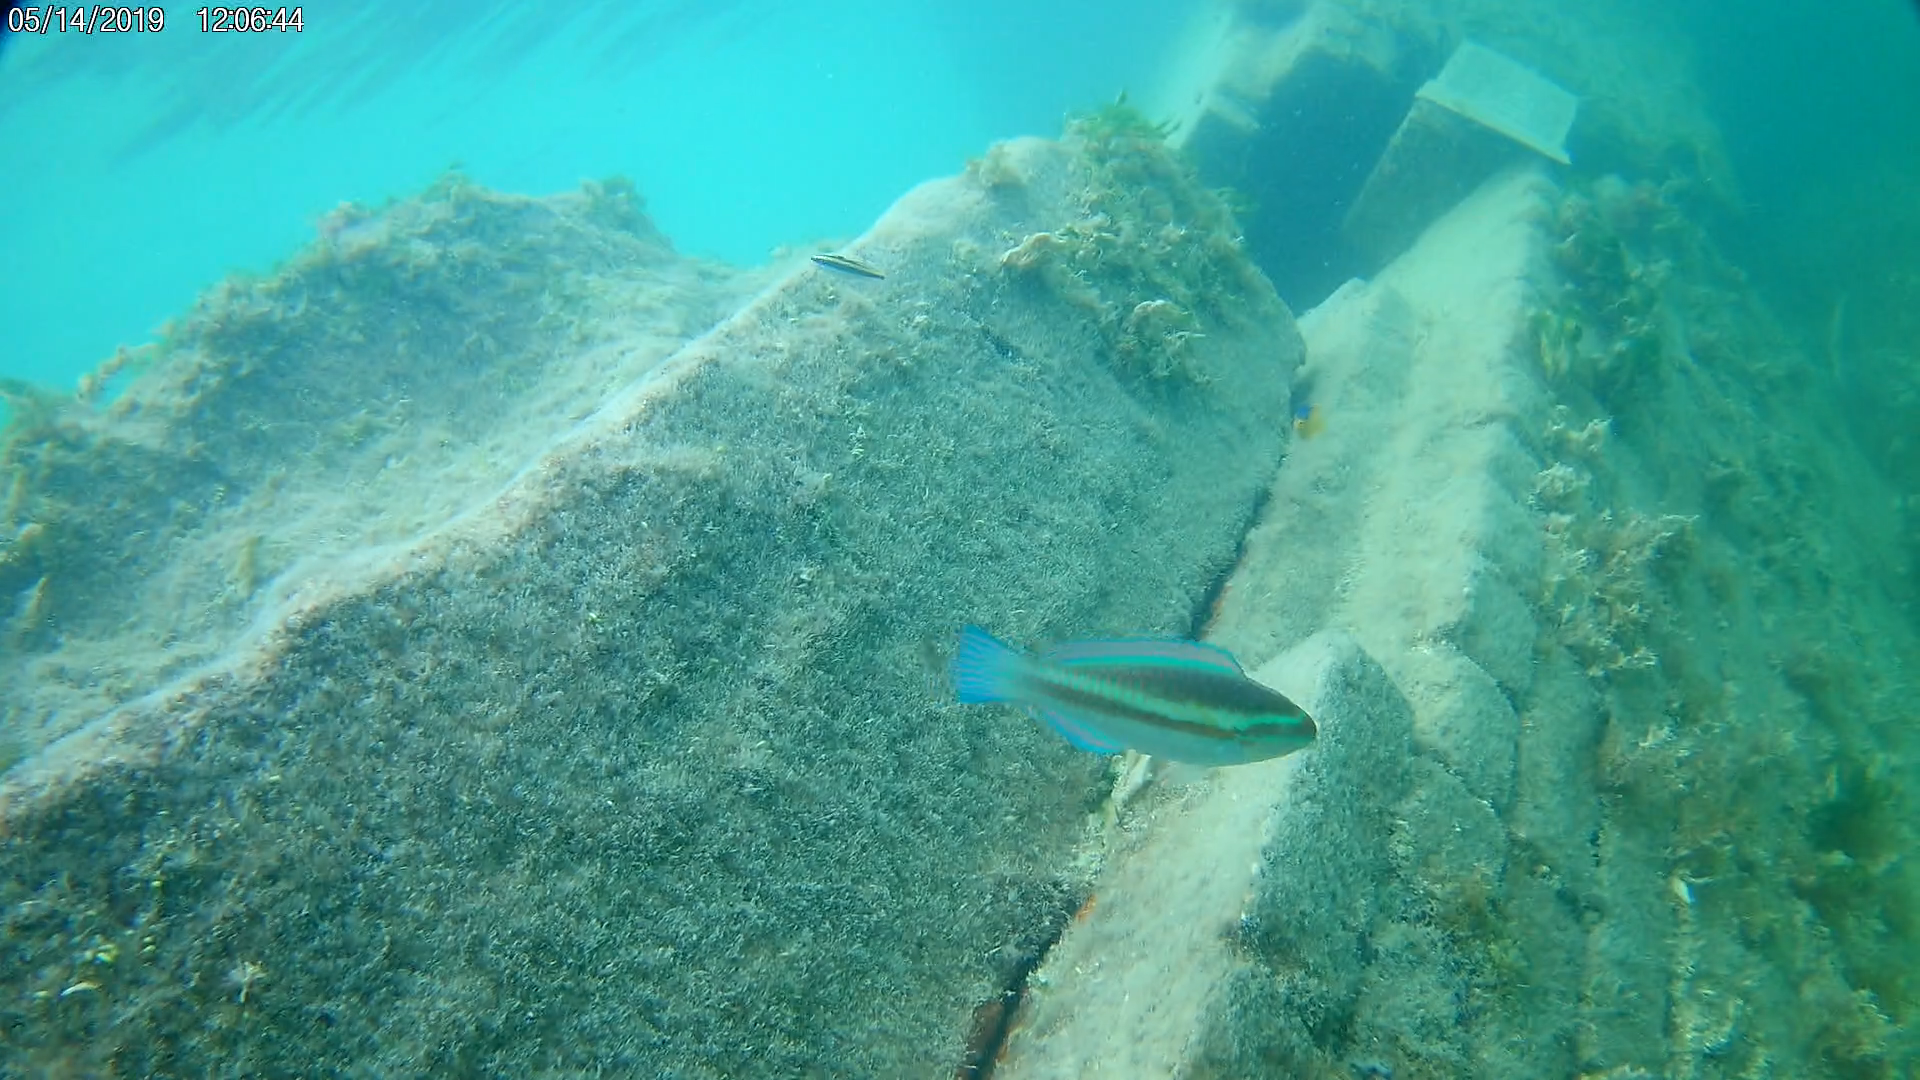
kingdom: Animalia
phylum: Chordata
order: Perciformes
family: Labridae
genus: Thalassoma
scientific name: Thalassoma bifasciatum
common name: Bluehead wrasse
